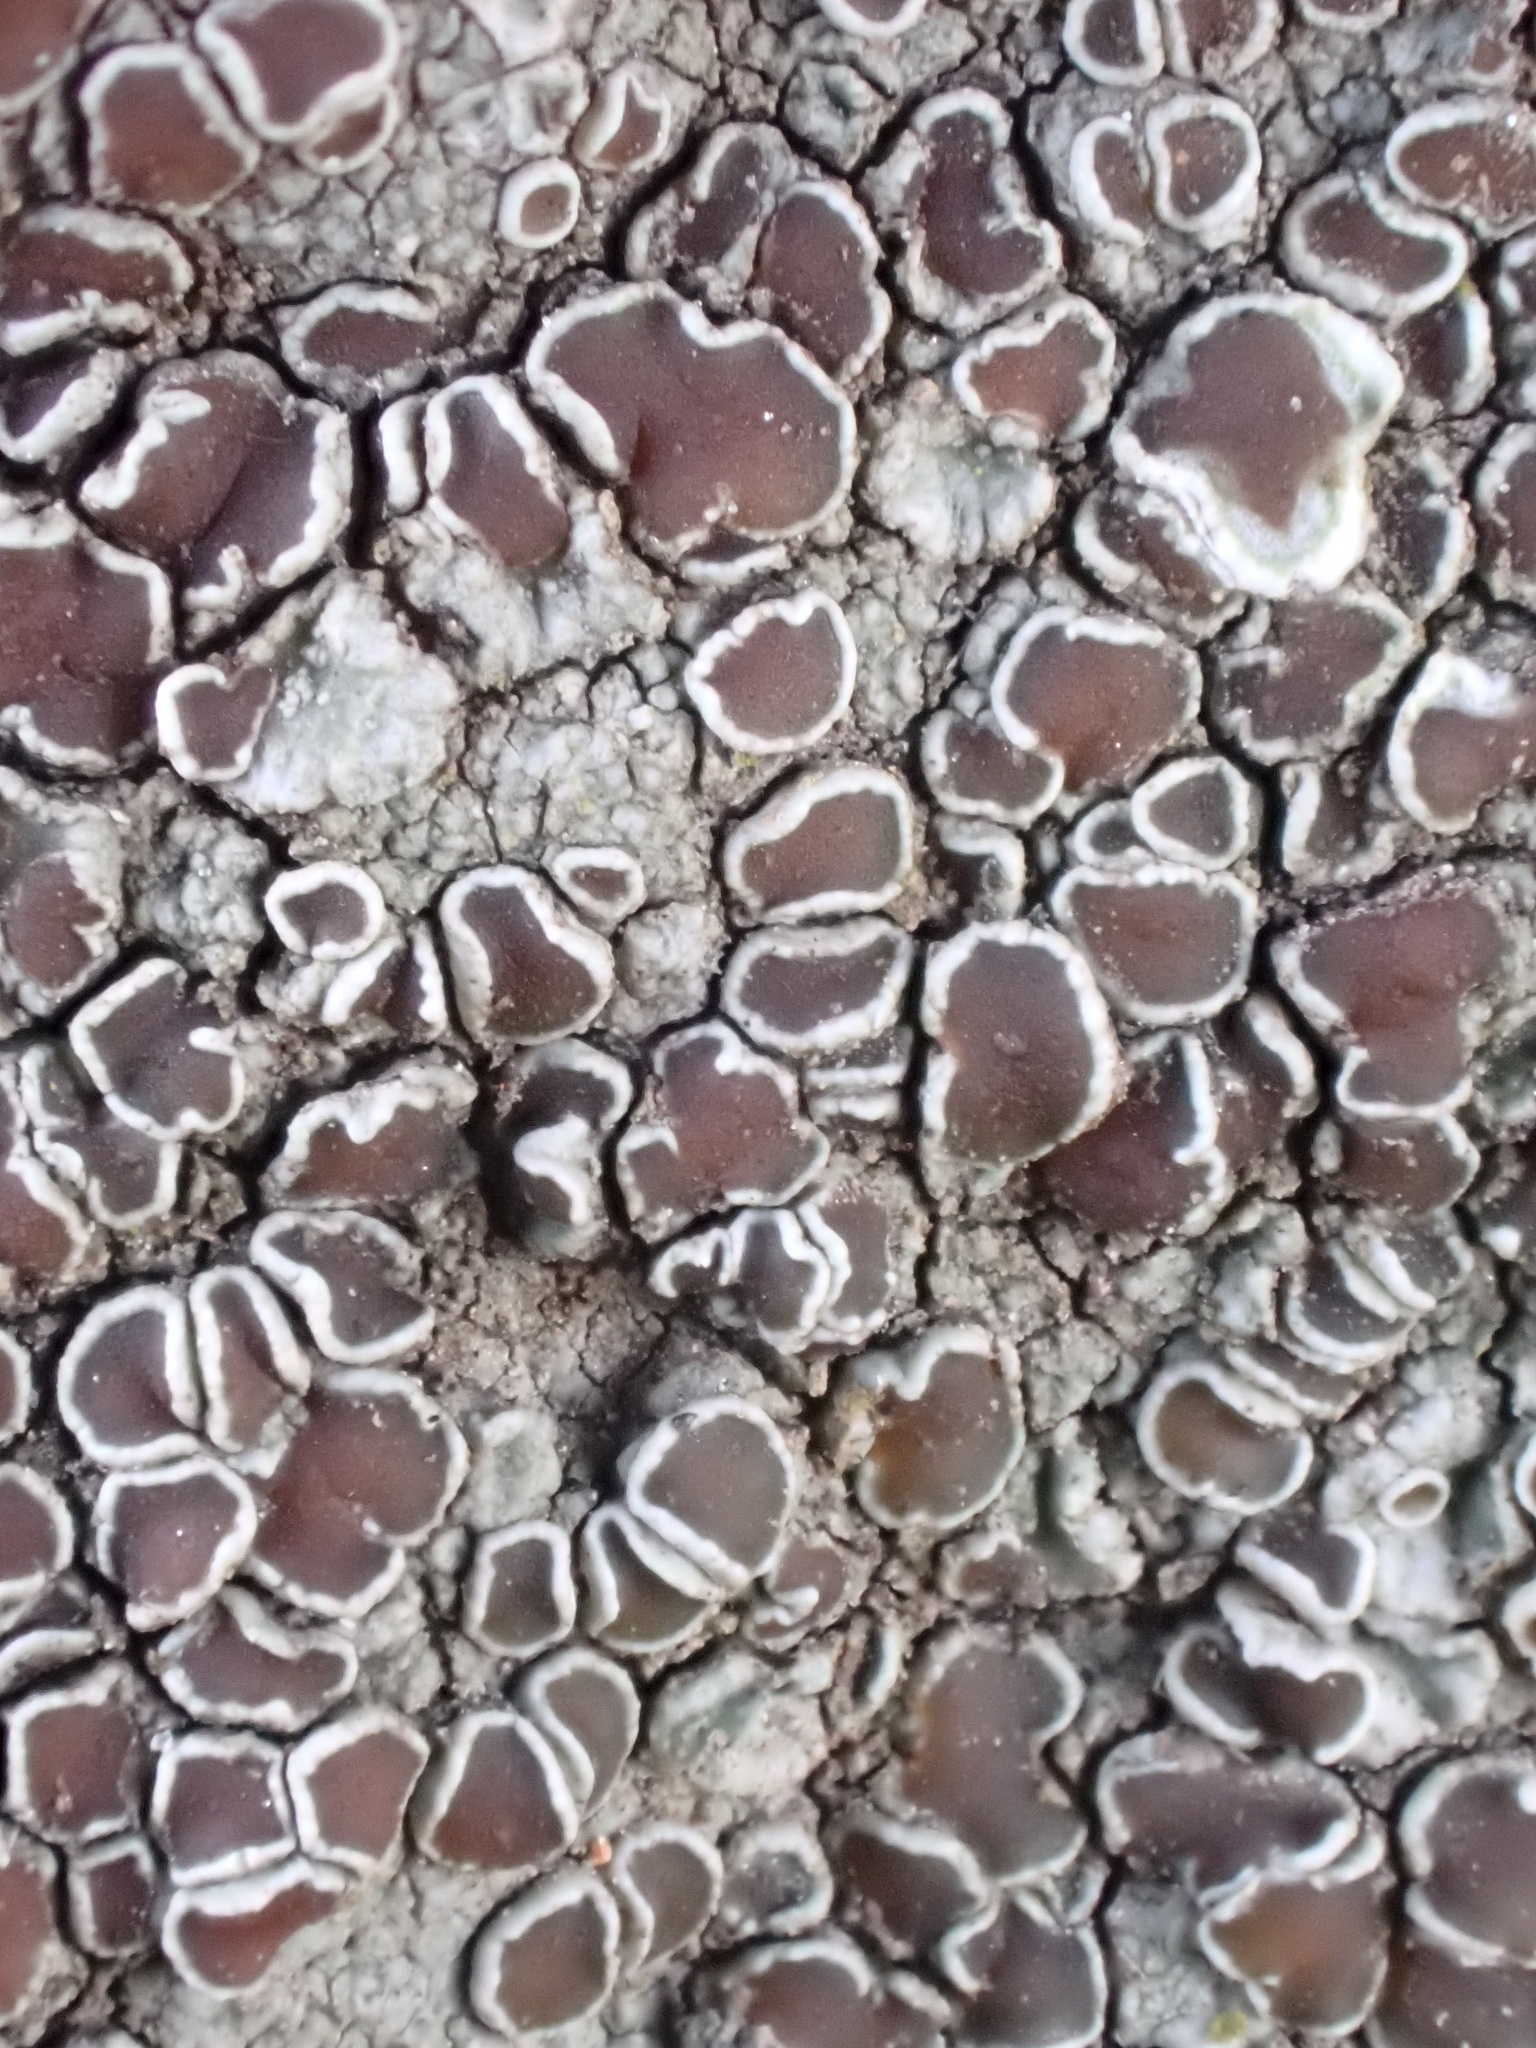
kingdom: Fungi
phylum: Ascomycota
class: Lecanoromycetes
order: Lecanorales
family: Lecanoraceae
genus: Lecanora
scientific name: Lecanora campestris
